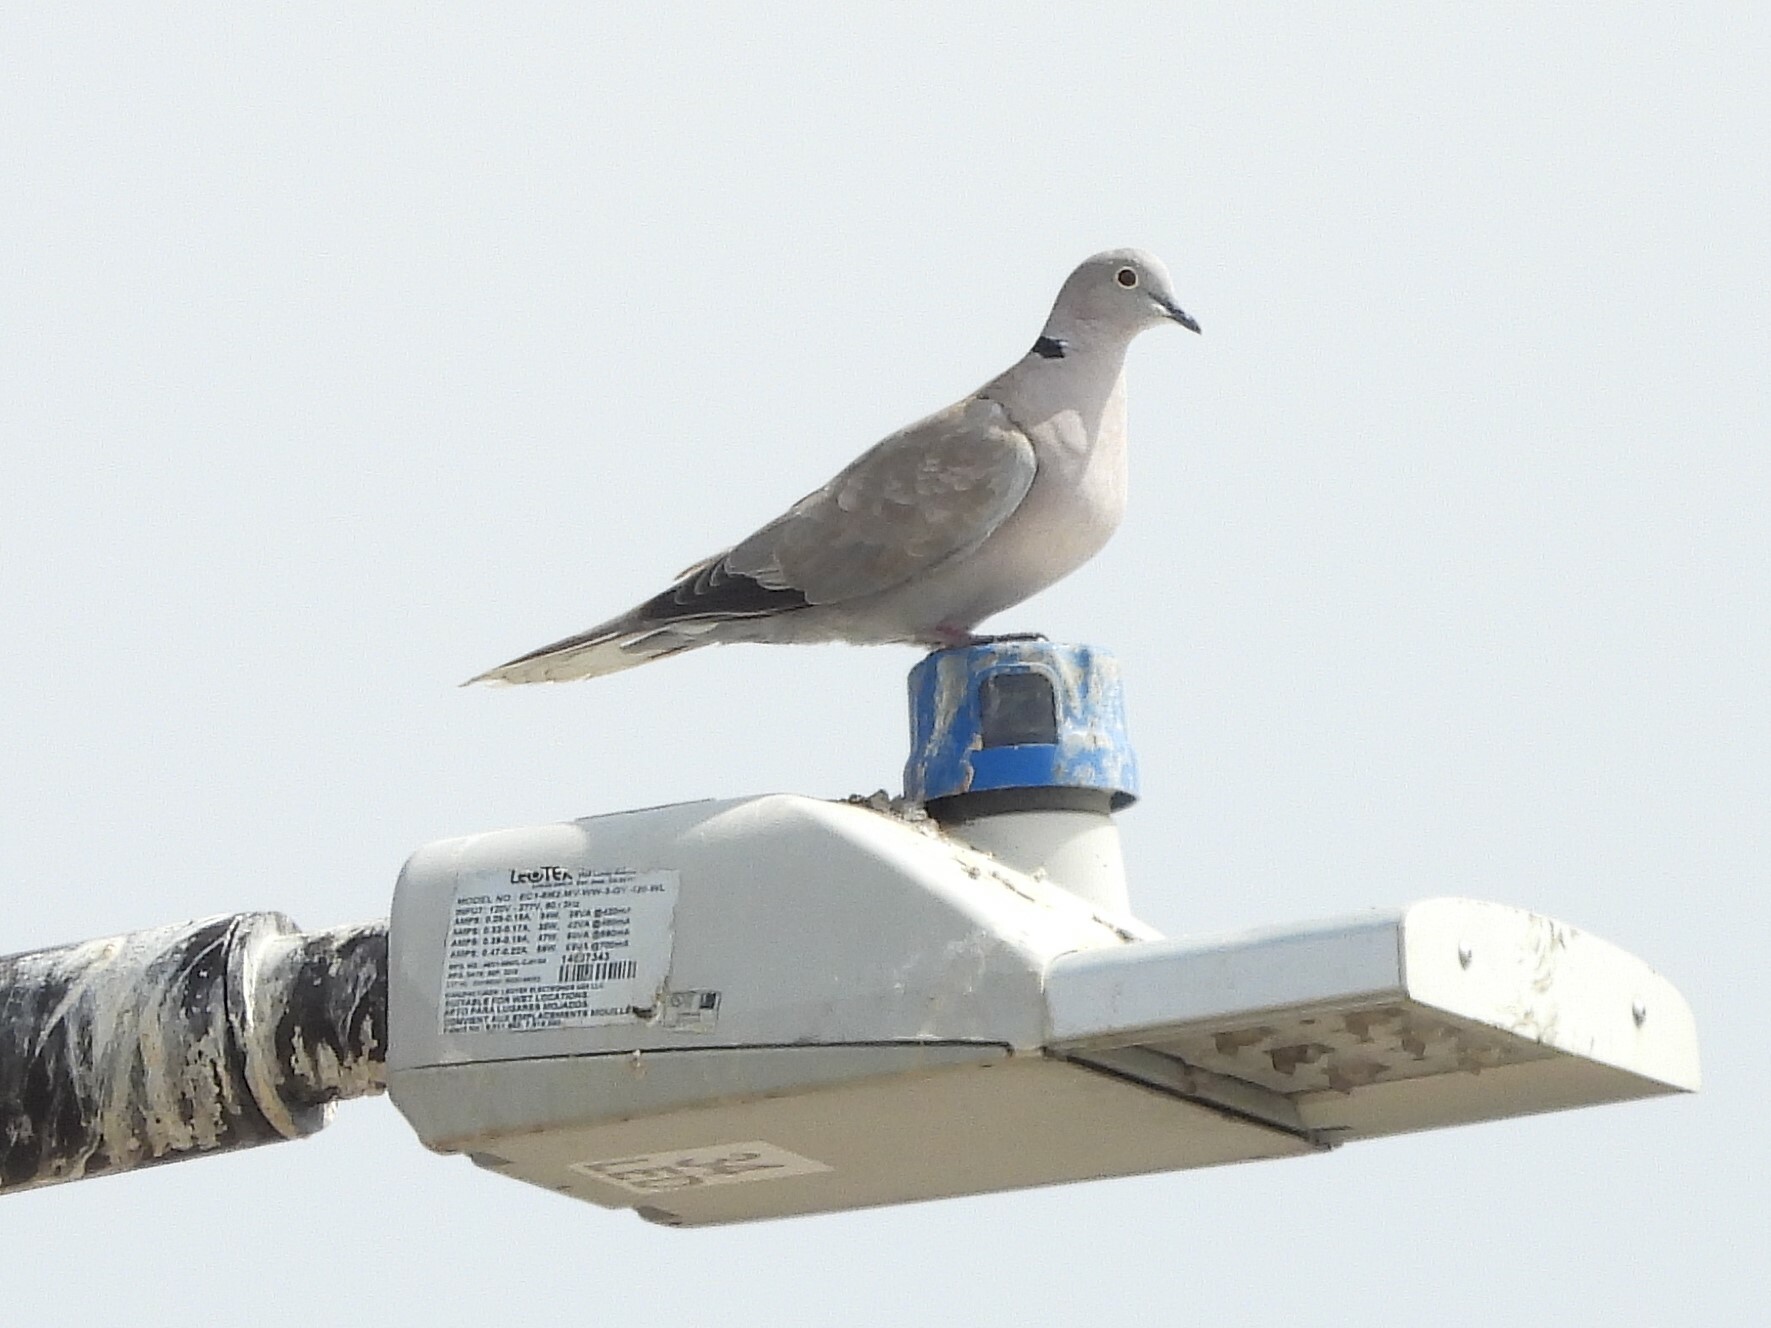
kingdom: Animalia
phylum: Chordata
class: Aves
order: Columbiformes
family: Columbidae
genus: Streptopelia
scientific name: Streptopelia decaocto
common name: Eurasian collared dove
